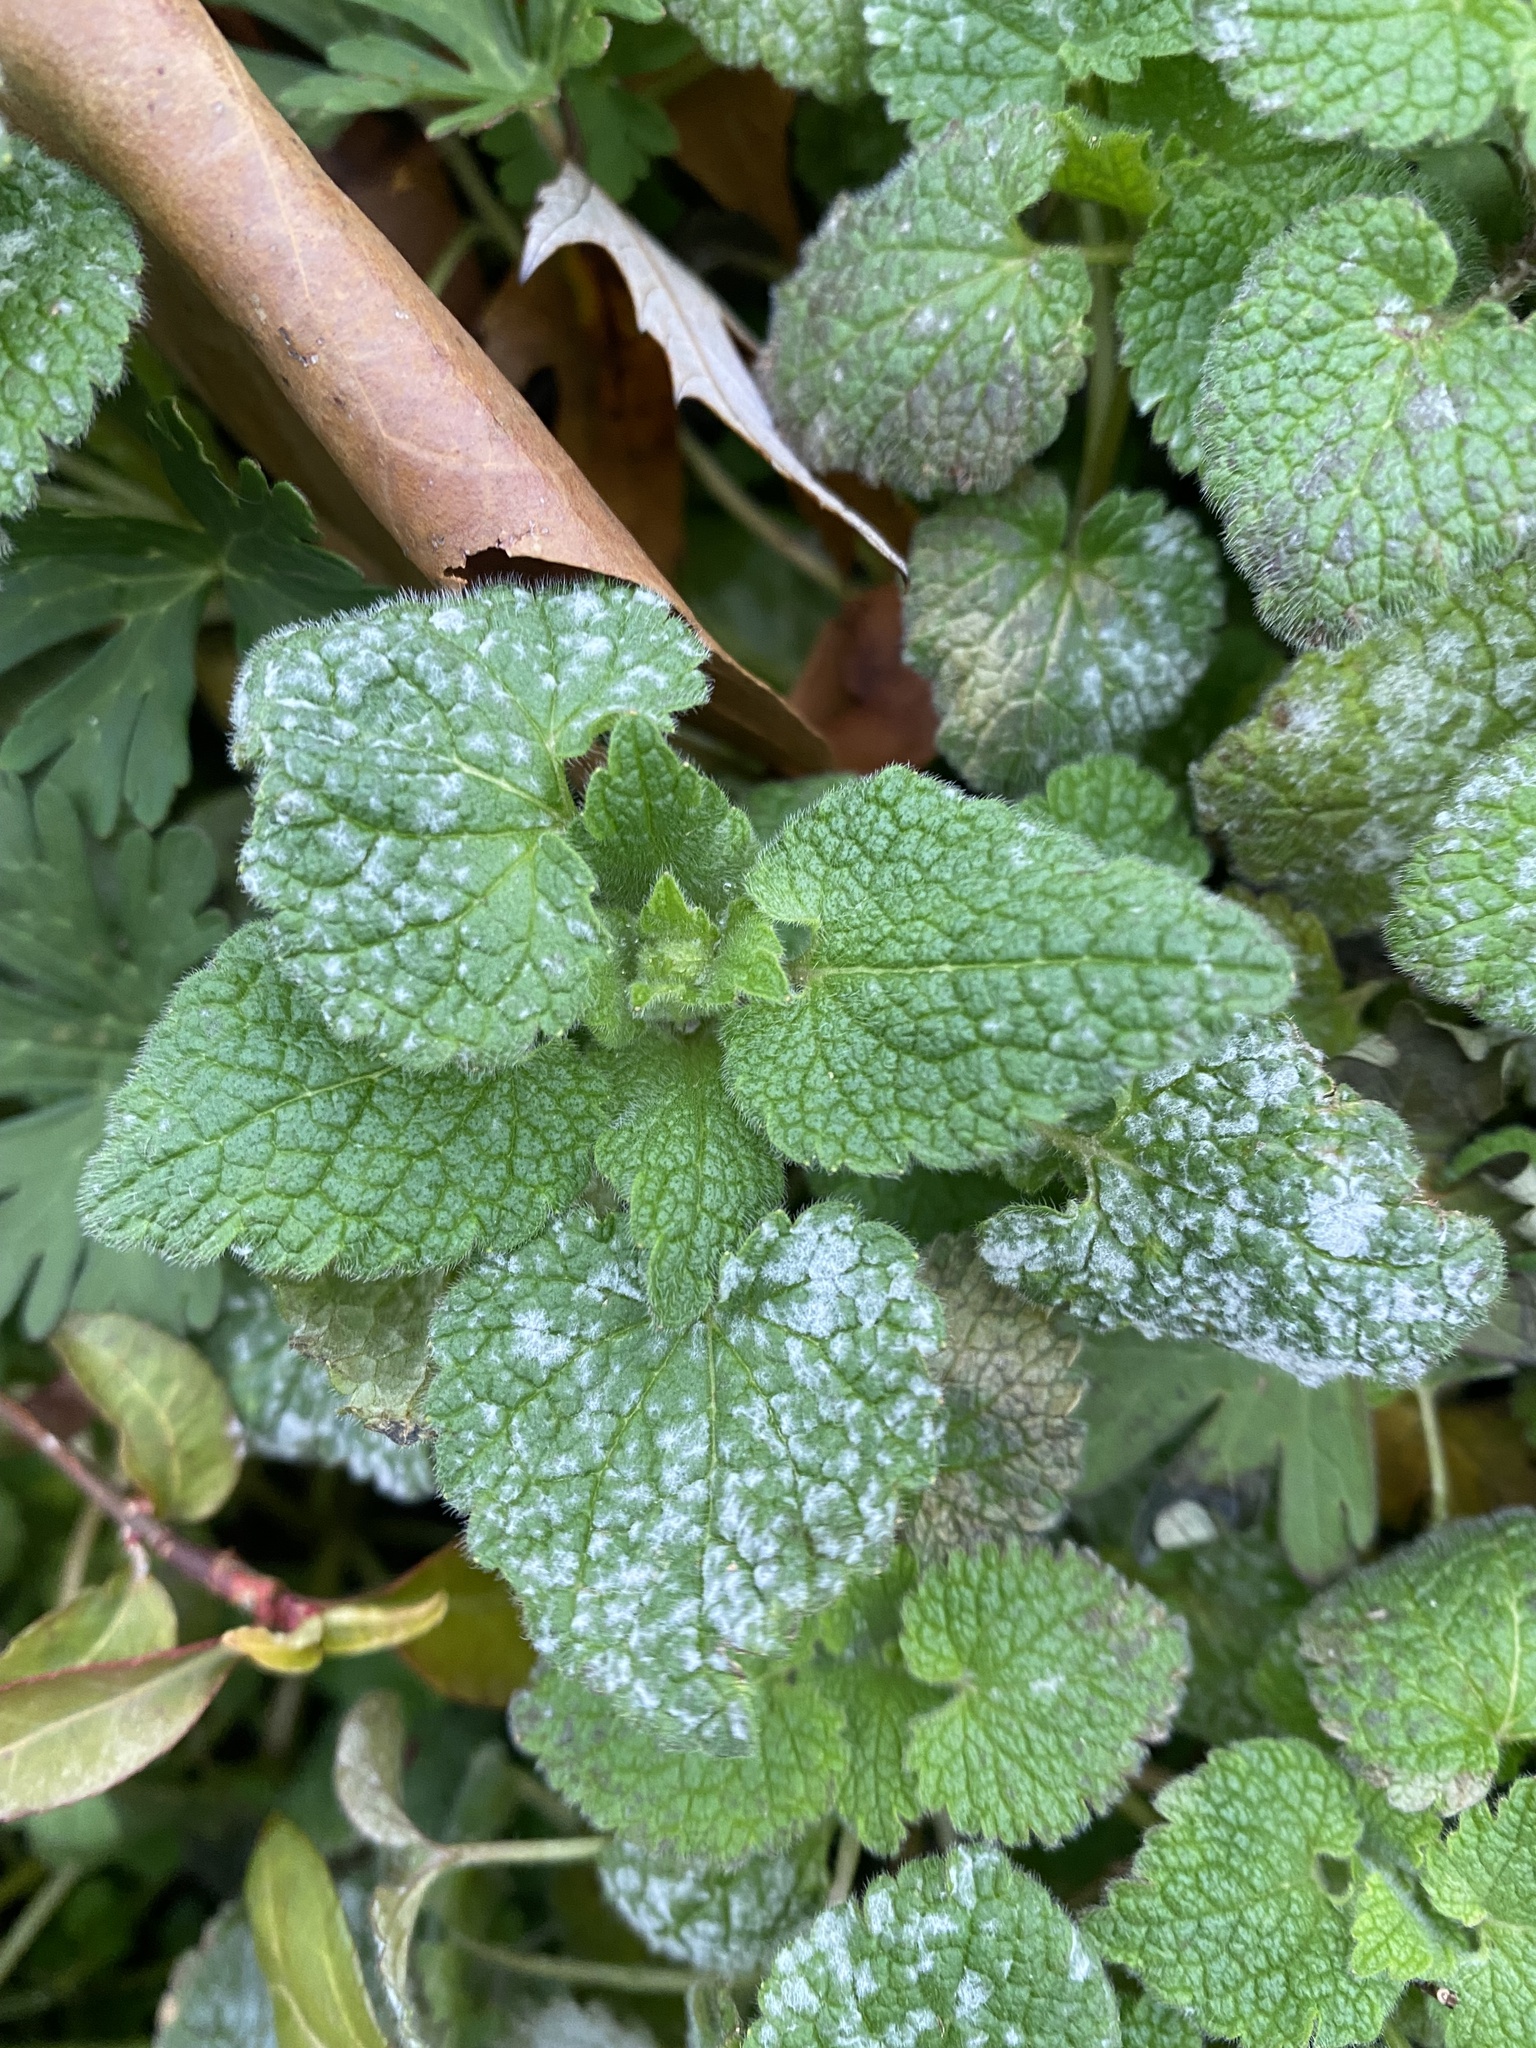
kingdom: Fungi
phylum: Ascomycota
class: Leotiomycetes
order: Helotiales
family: Erysiphaceae
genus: Neoerysiphe
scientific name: Neoerysiphe galeopsidis
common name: Mint mildew
